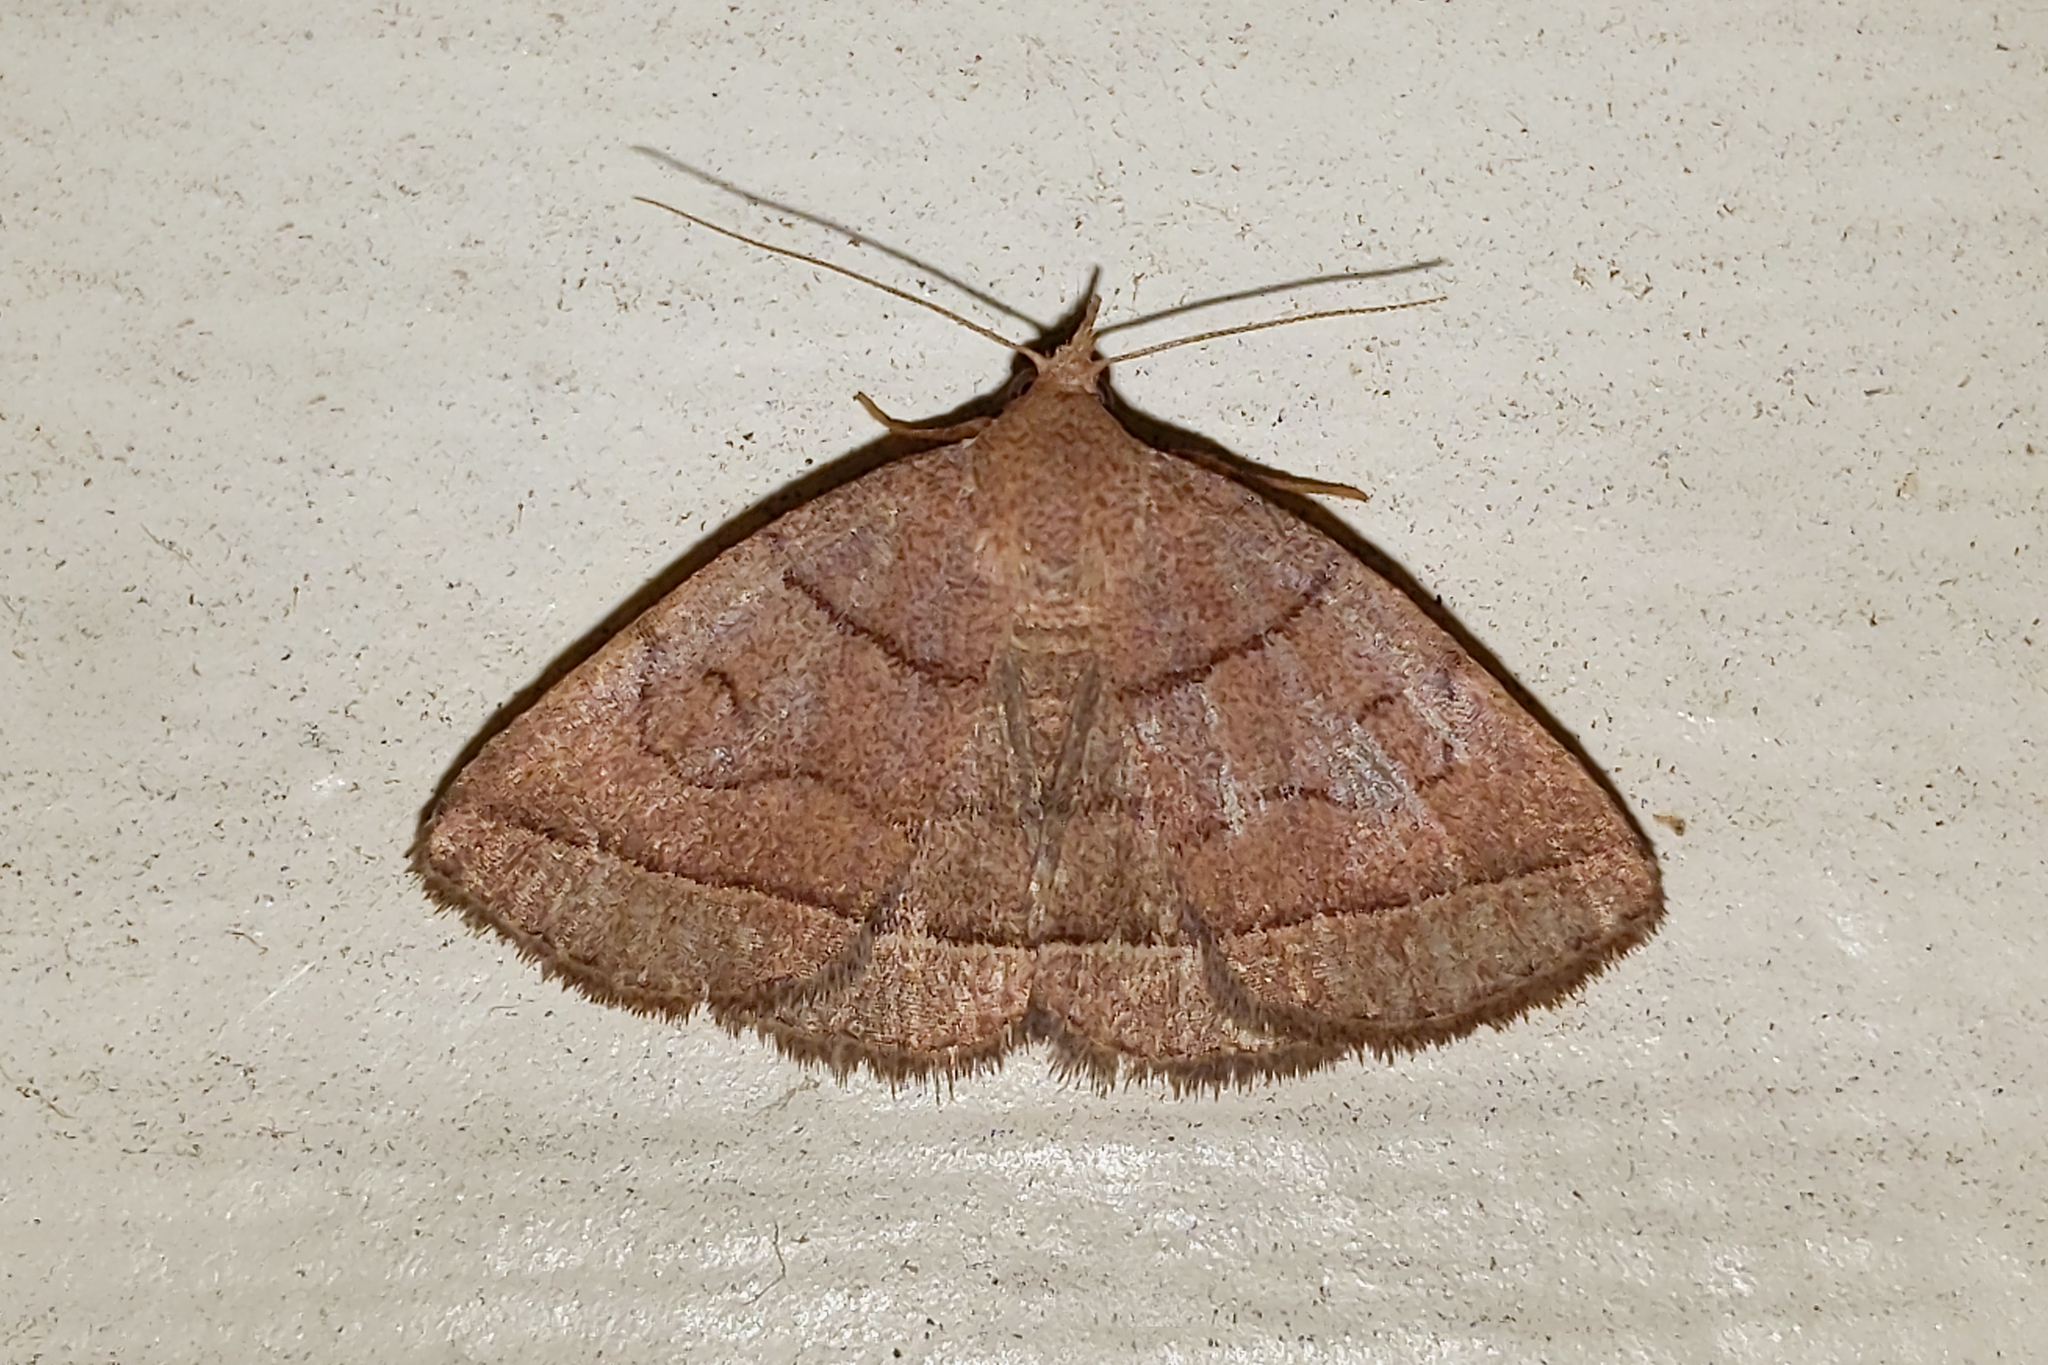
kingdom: Animalia
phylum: Arthropoda
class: Insecta
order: Lepidoptera
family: Erebidae
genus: Zanclognatha
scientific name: Zanclognatha cruralis
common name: Early fan-foot
